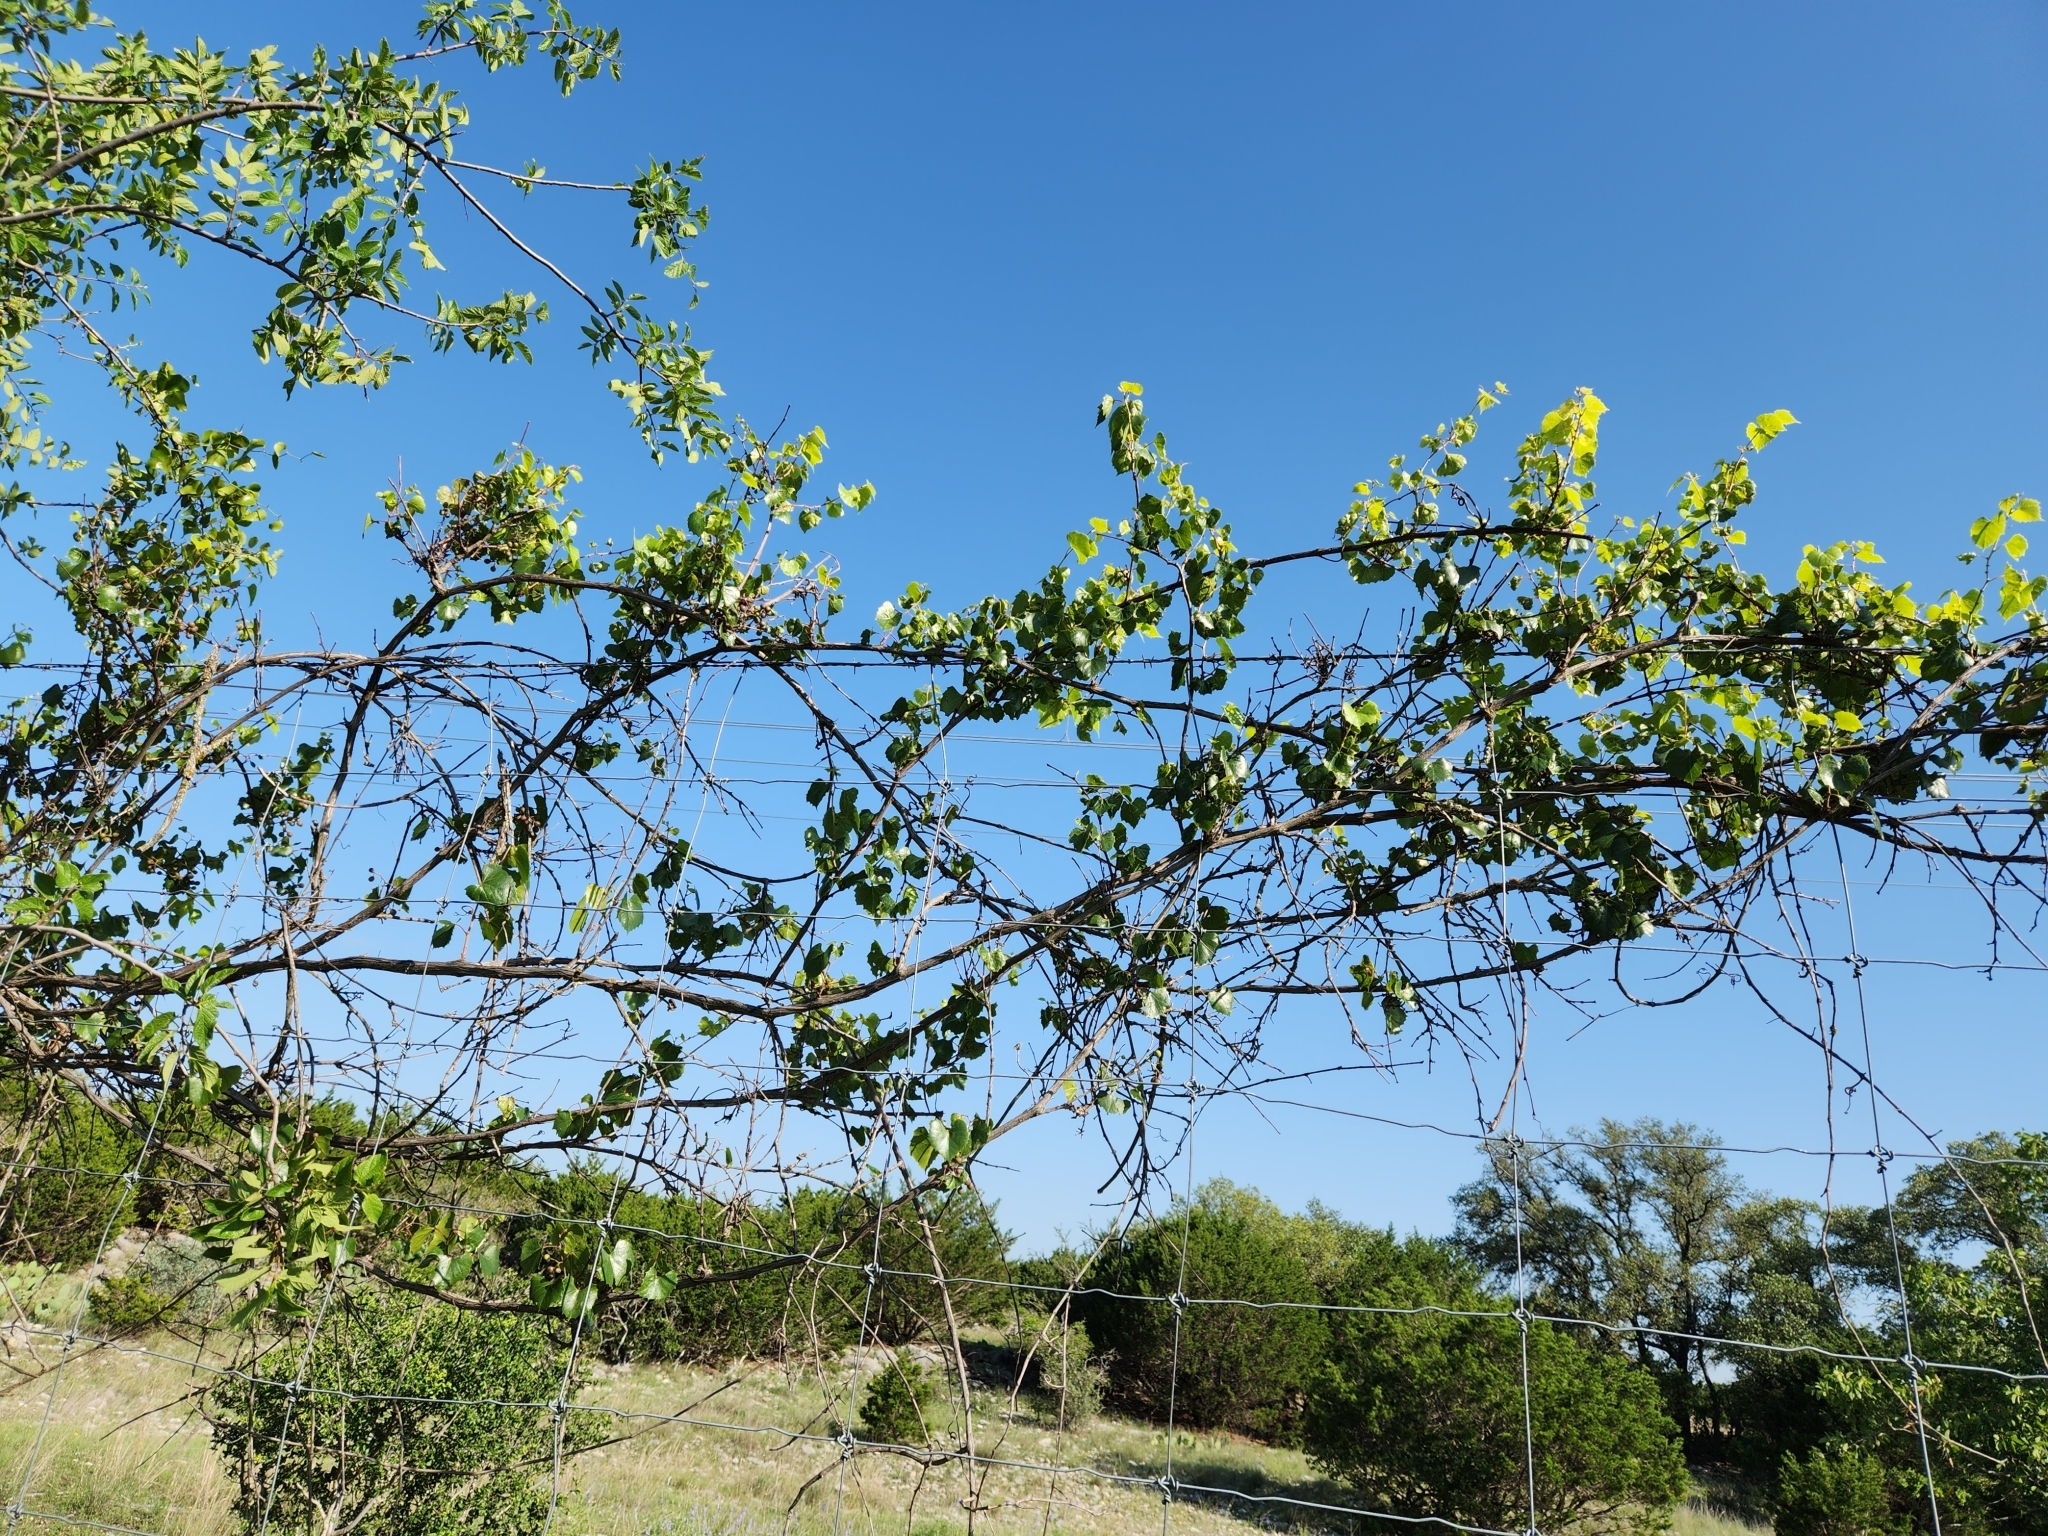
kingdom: Plantae
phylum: Tracheophyta
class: Magnoliopsida
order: Vitales
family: Vitaceae
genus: Vitis
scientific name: Vitis monticola
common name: Mountain grape
